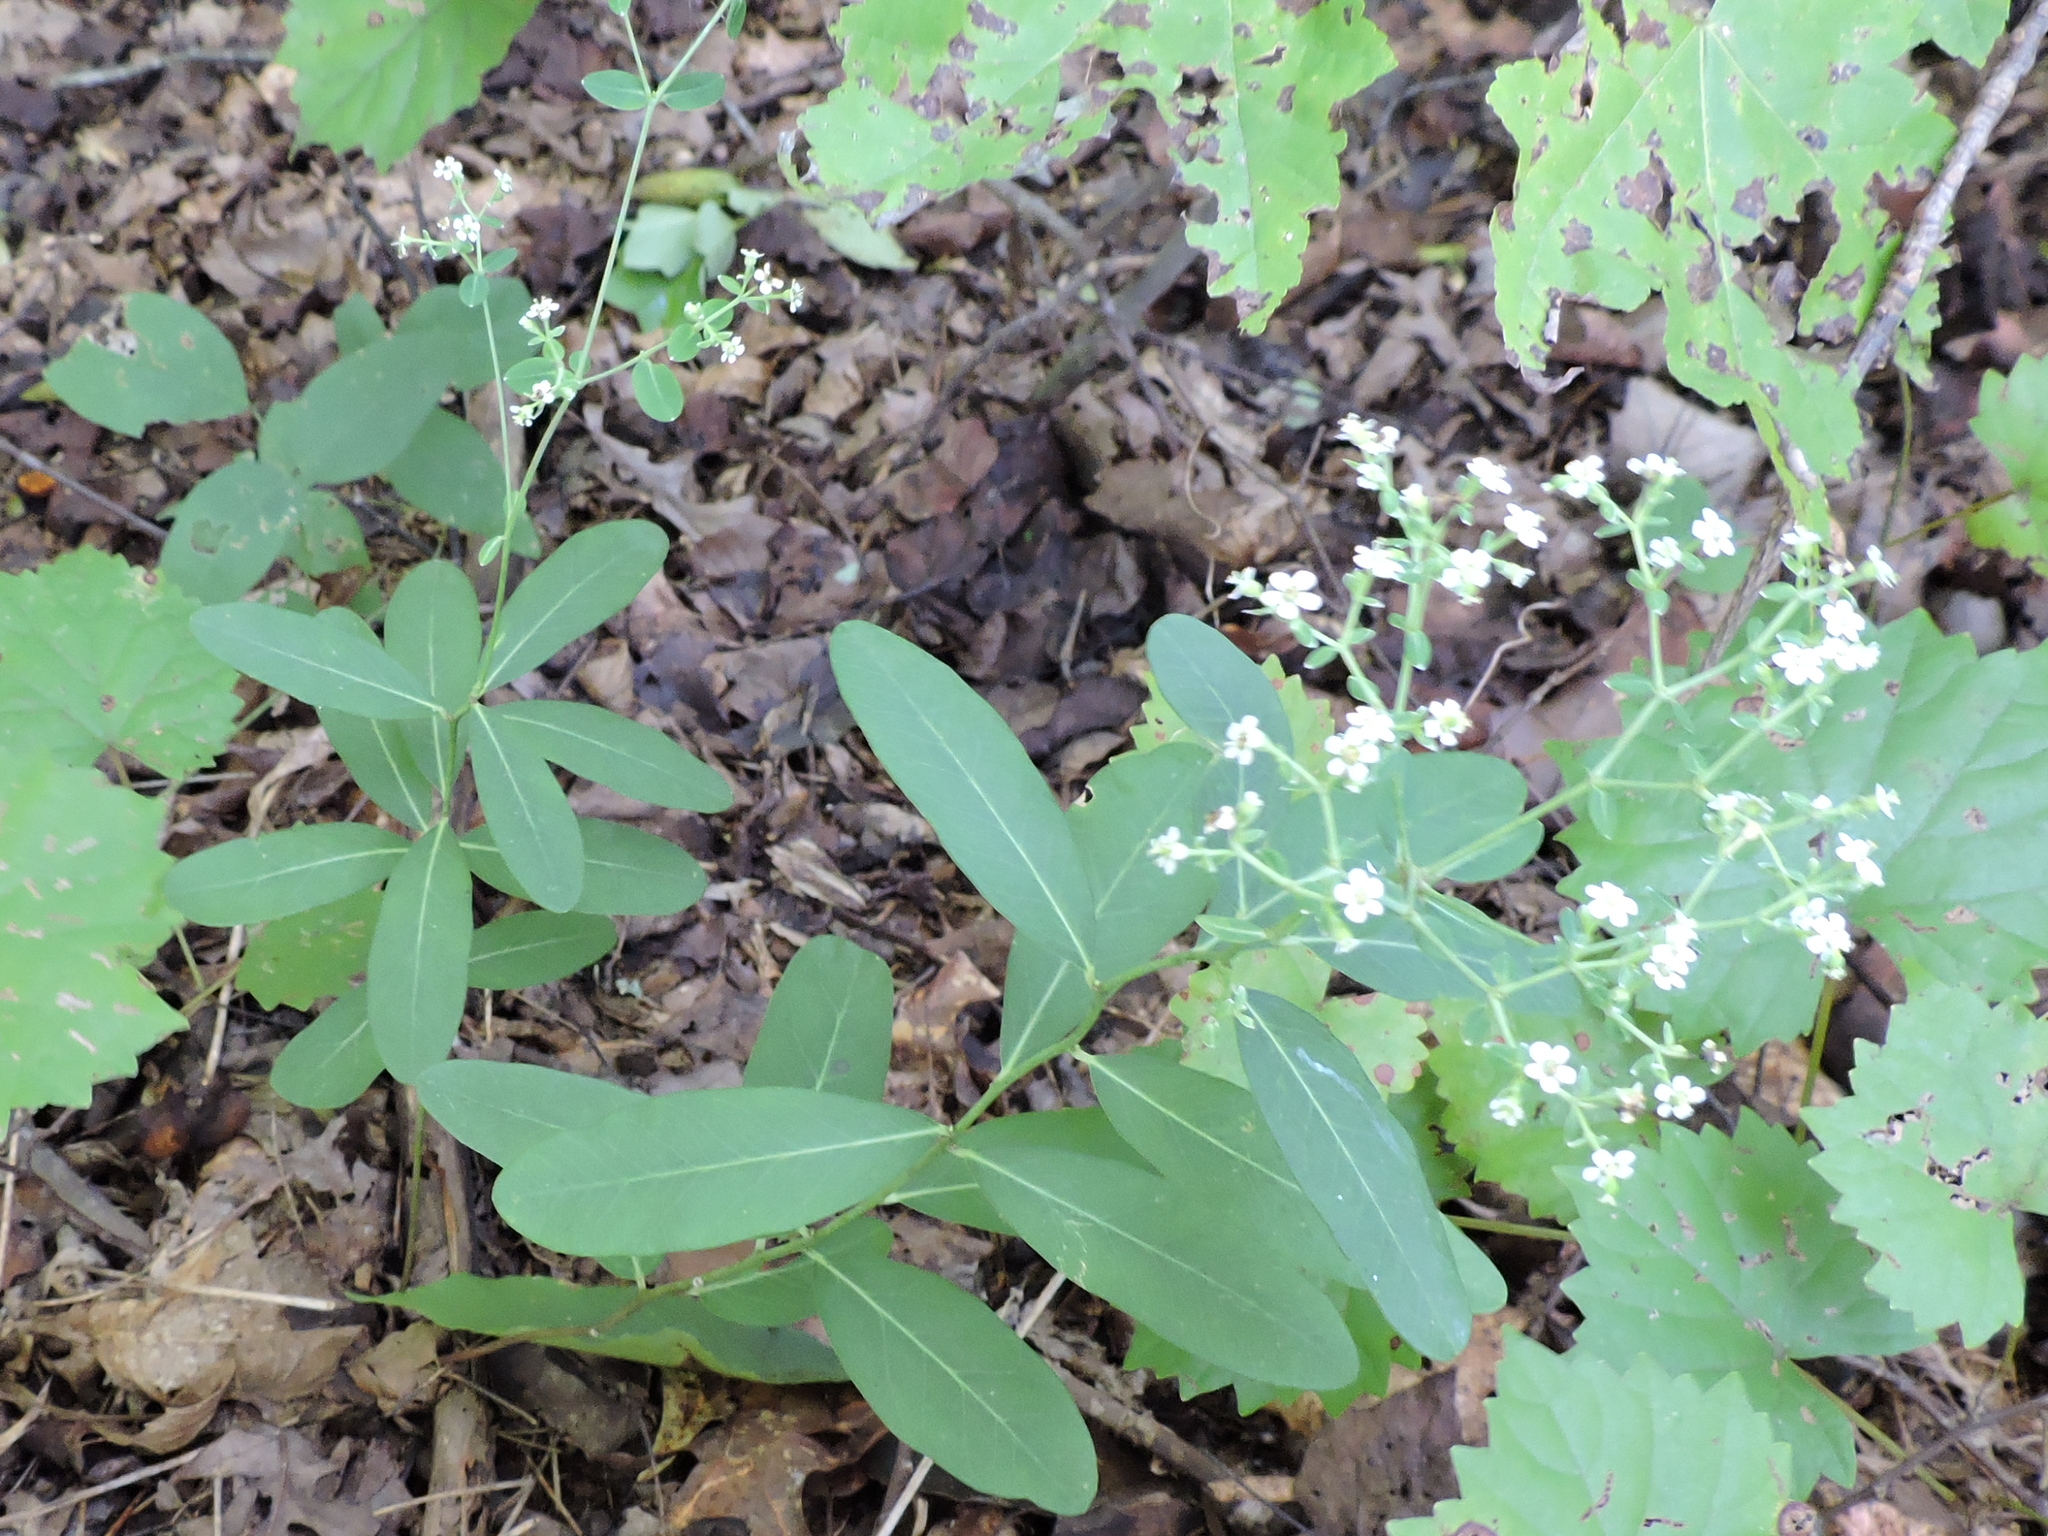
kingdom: Plantae
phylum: Tracheophyta
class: Magnoliopsida
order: Malpighiales
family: Euphorbiaceae
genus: Euphorbia
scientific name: Euphorbia corollata
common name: Flowering spurge
